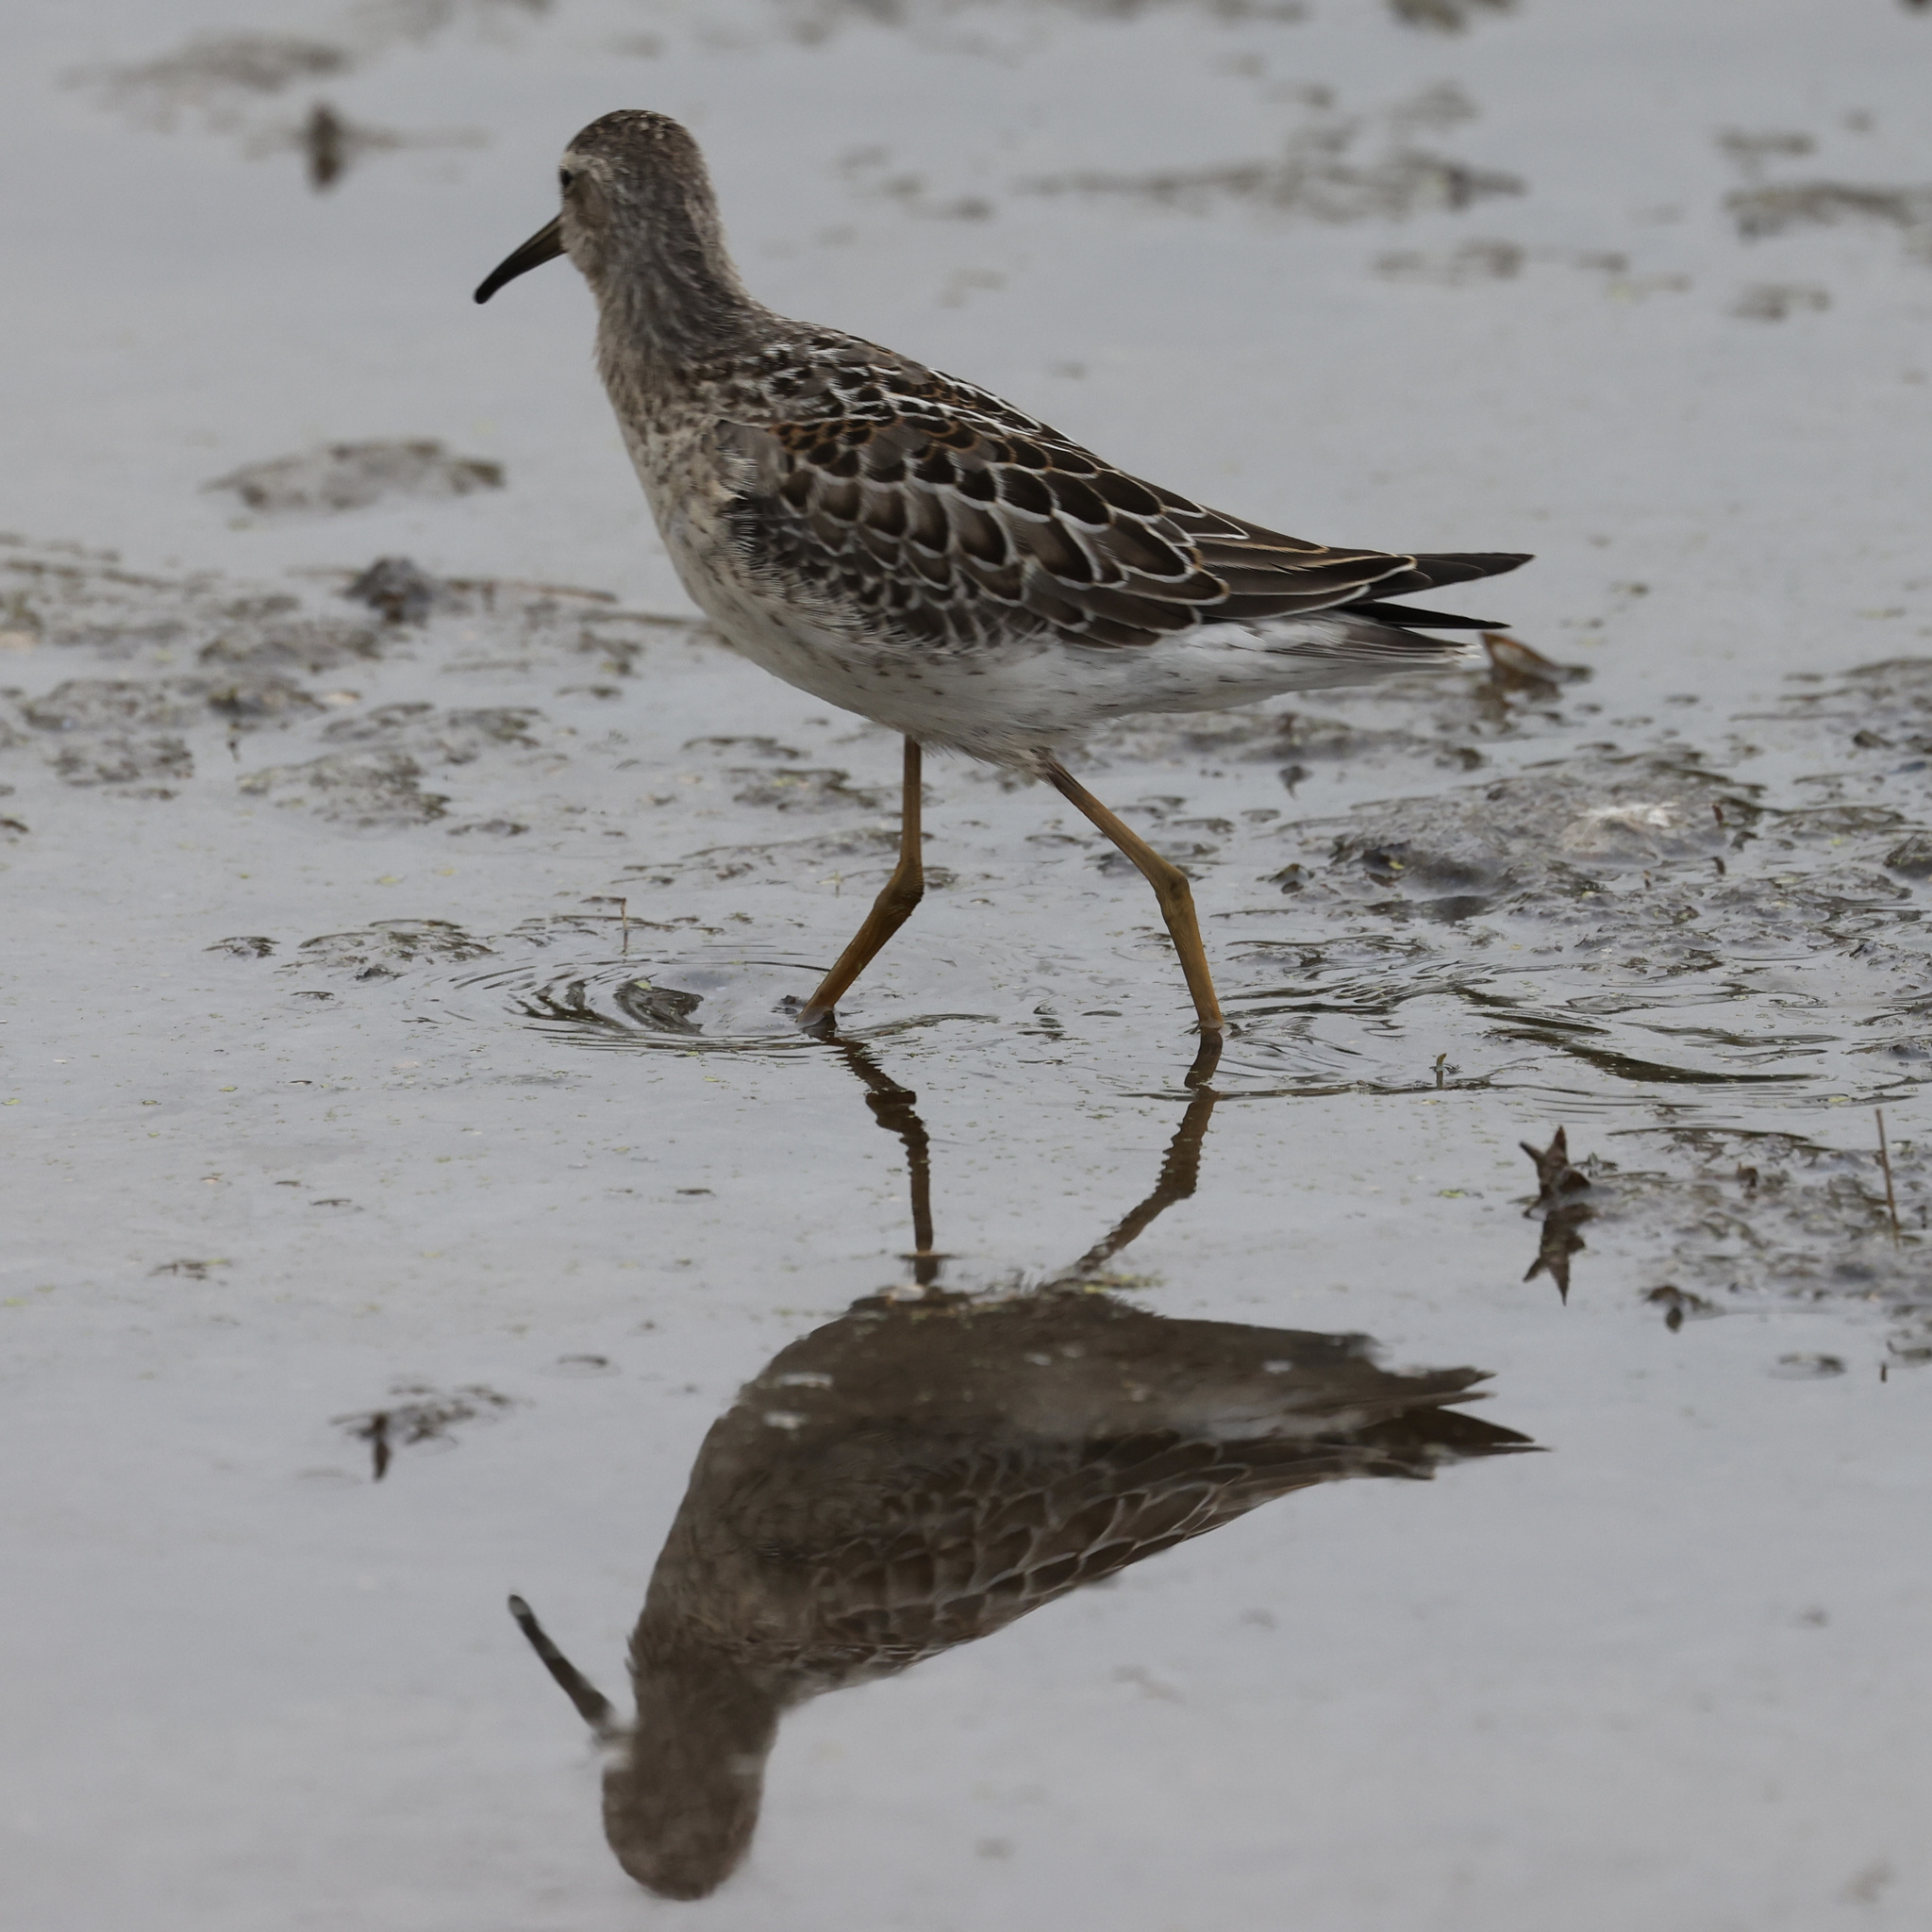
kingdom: Animalia
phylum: Chordata
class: Aves
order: Charadriiformes
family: Scolopacidae
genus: Calidris
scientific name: Calidris himantopus
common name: Stilt sandpiper
